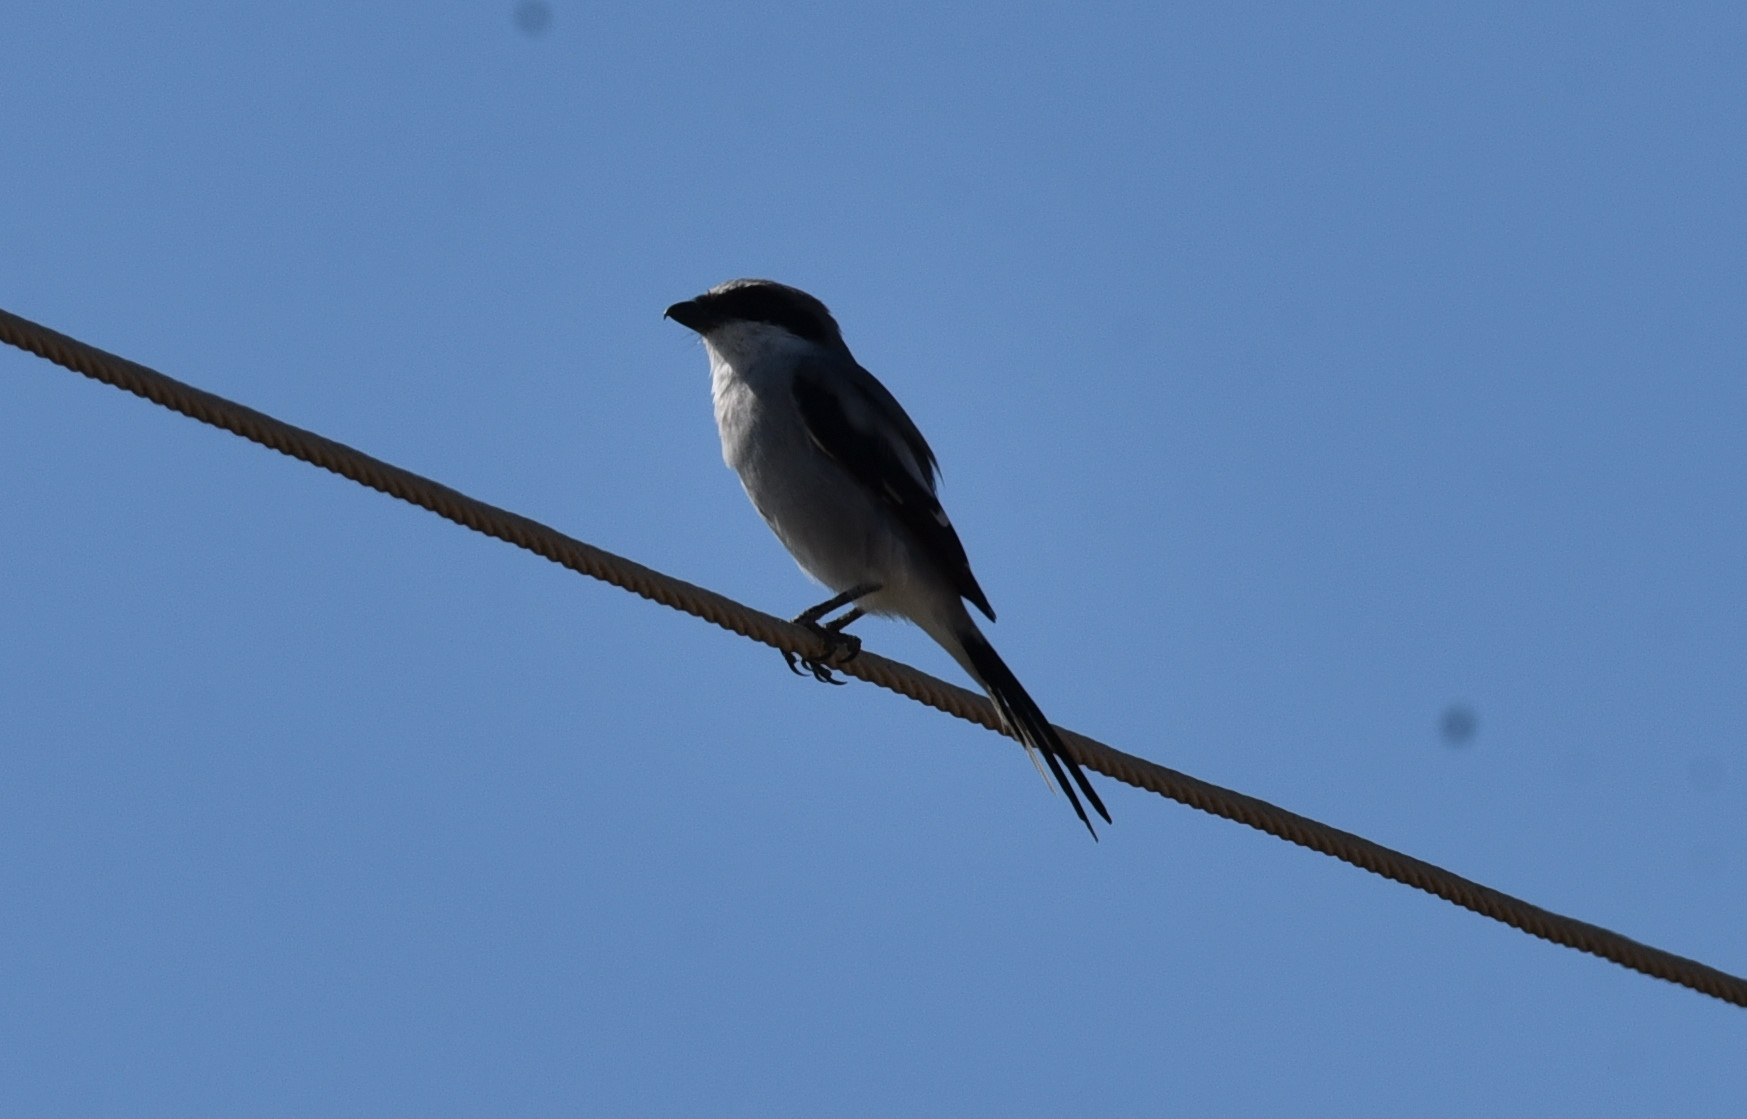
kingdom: Animalia
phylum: Chordata
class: Aves
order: Passeriformes
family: Laniidae
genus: Lanius
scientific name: Lanius ludovicianus
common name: Loggerhead shrike
